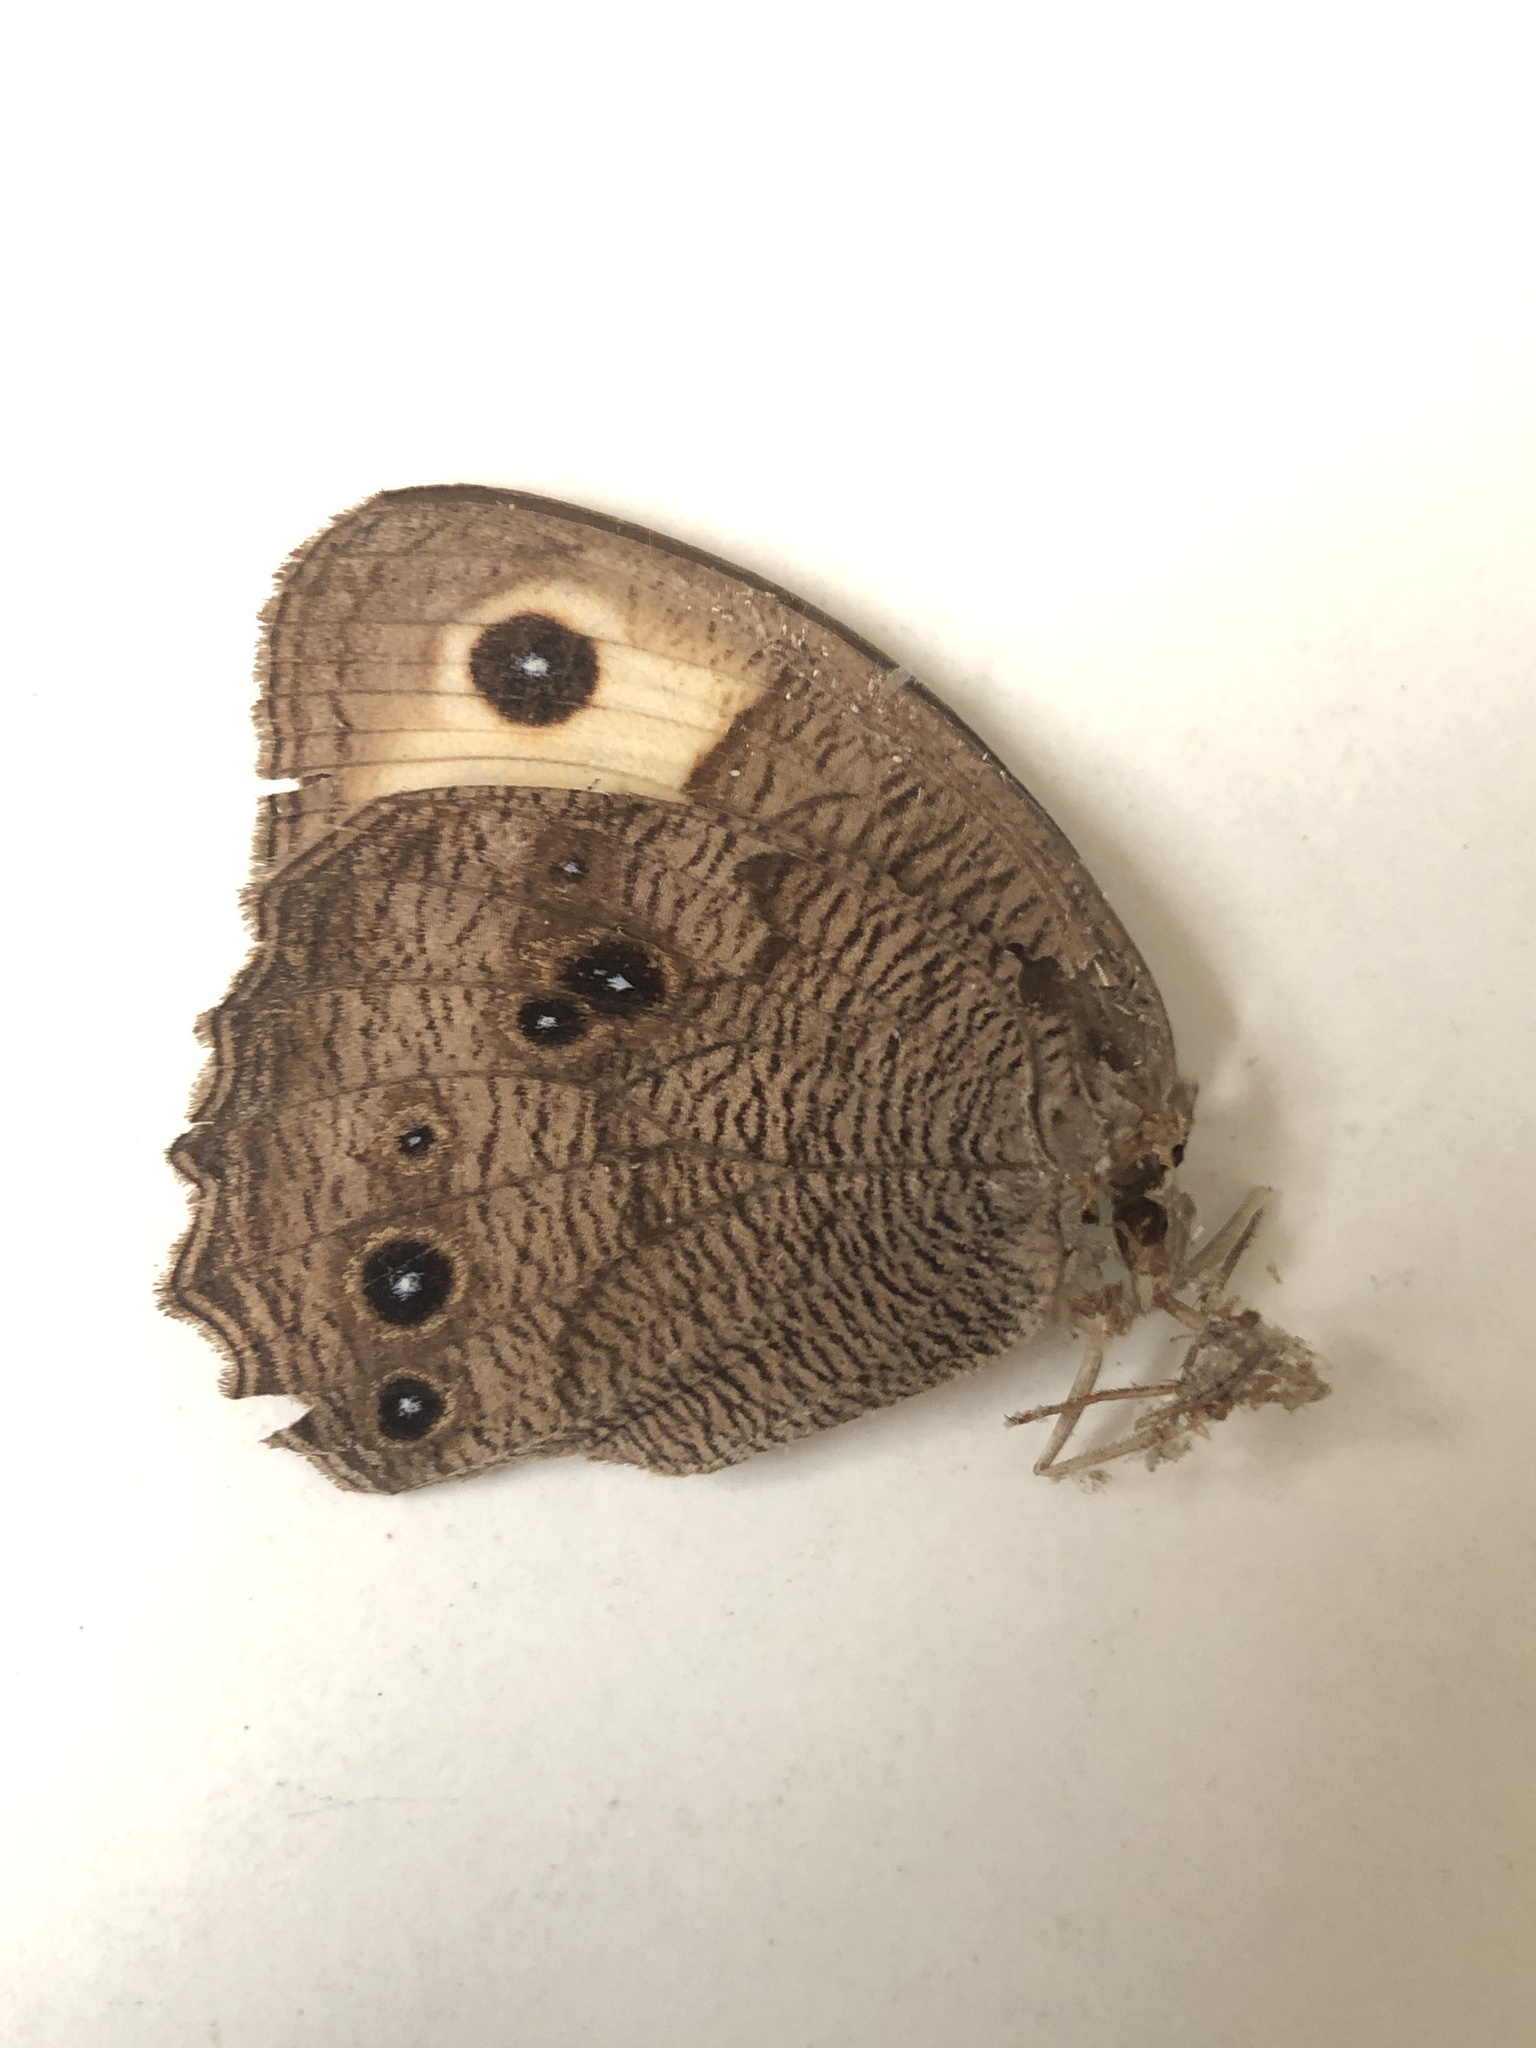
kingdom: Animalia
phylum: Arthropoda
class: Insecta
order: Lepidoptera
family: Nymphalidae
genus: Cercyonis
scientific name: Cercyonis pegala
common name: Common wood-nymph
